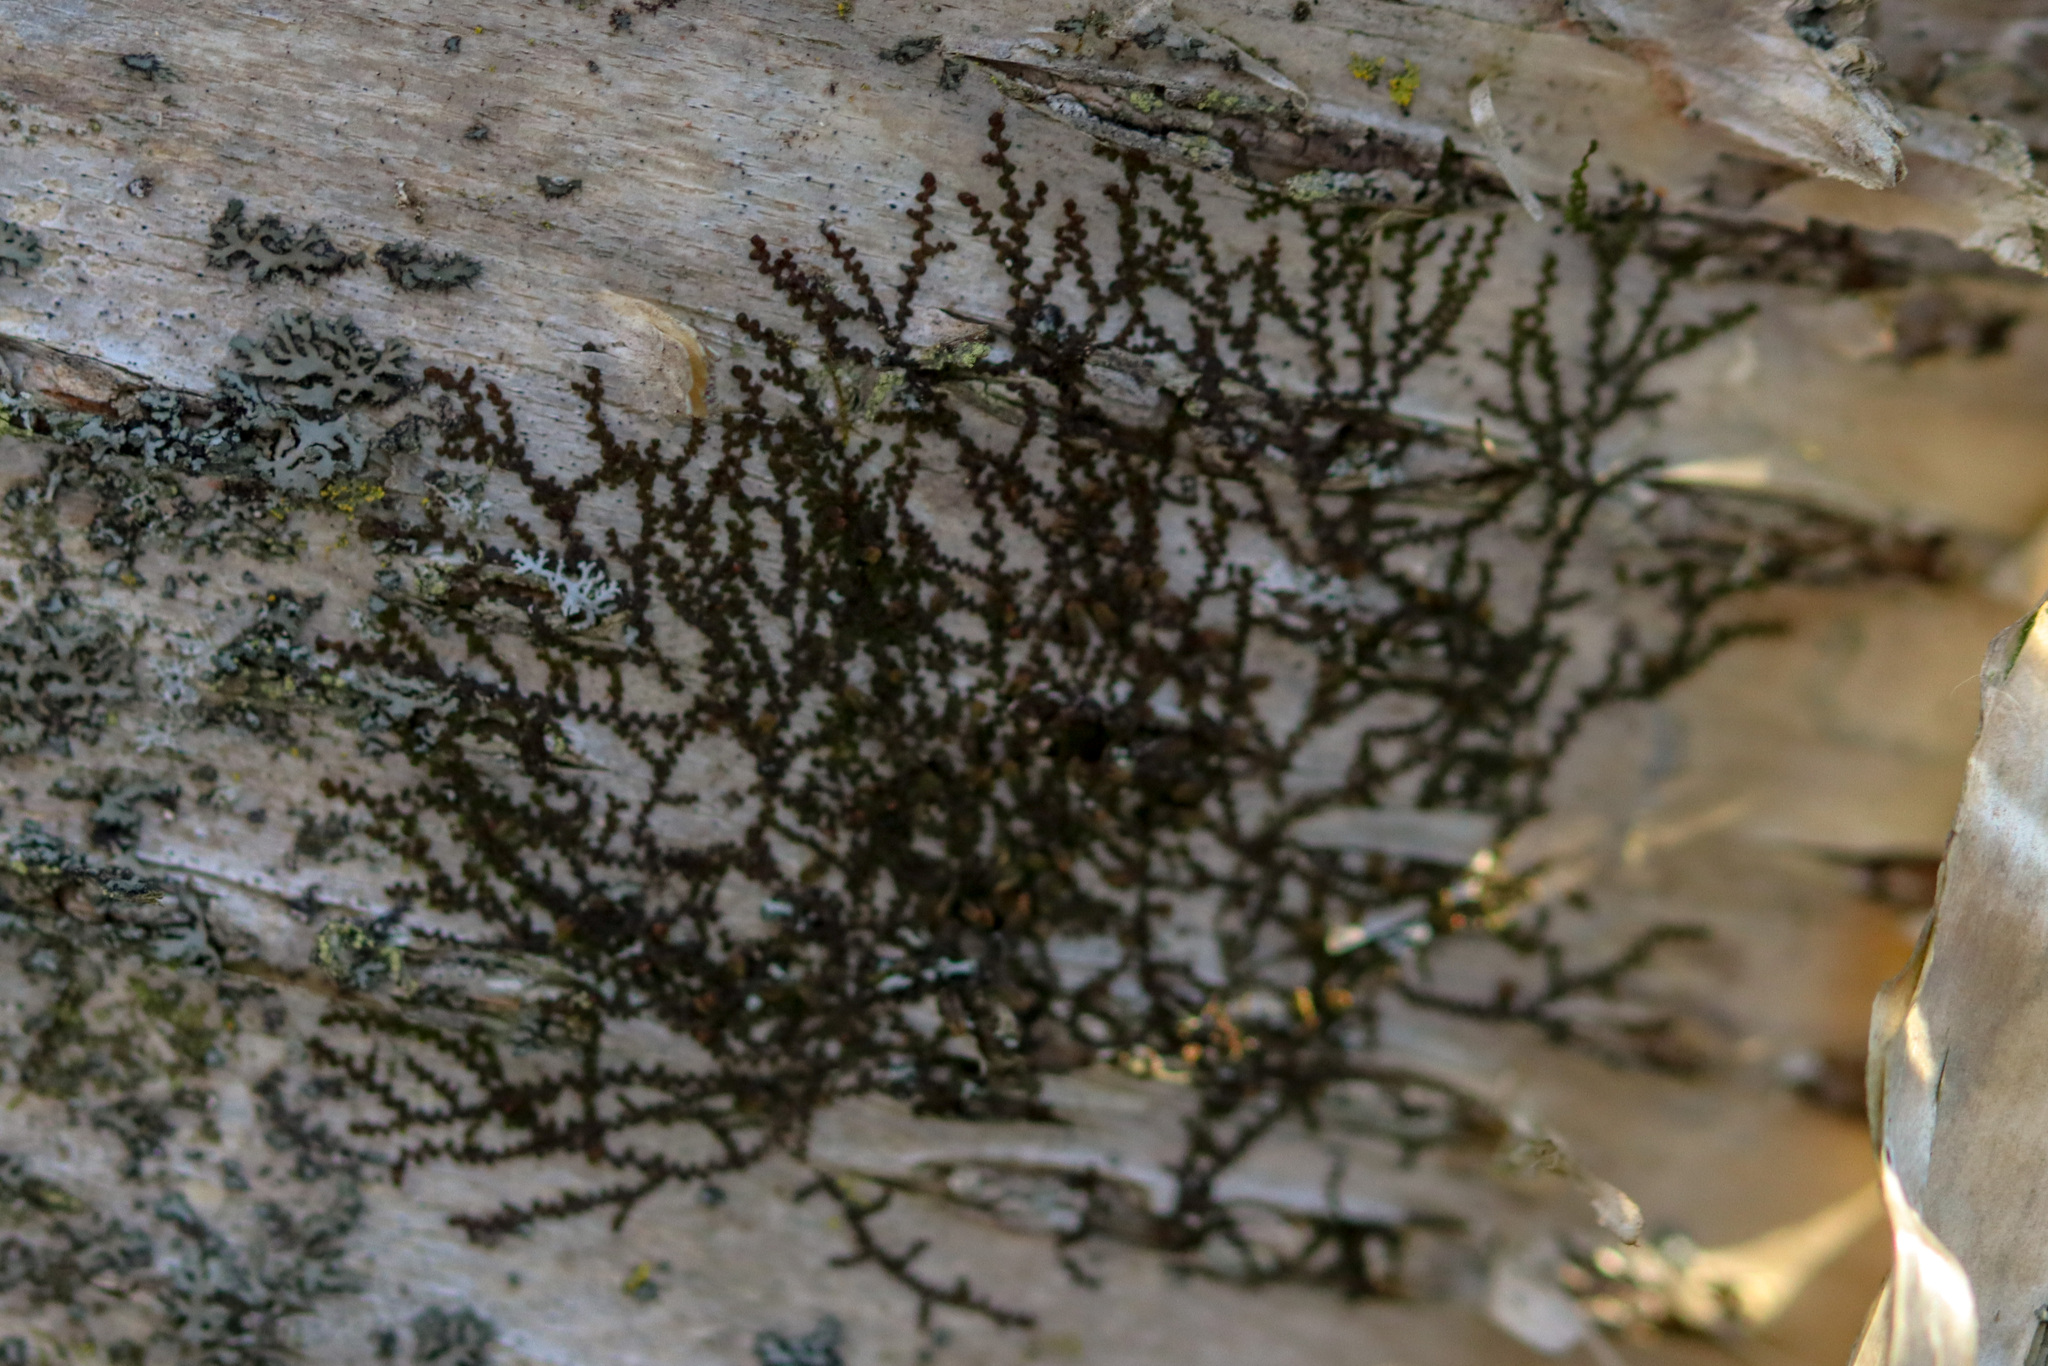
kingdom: Plantae
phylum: Marchantiophyta
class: Jungermanniopsida
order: Porellales
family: Frullaniaceae
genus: Frullania
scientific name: Frullania eboracensis
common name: New york scalewort
